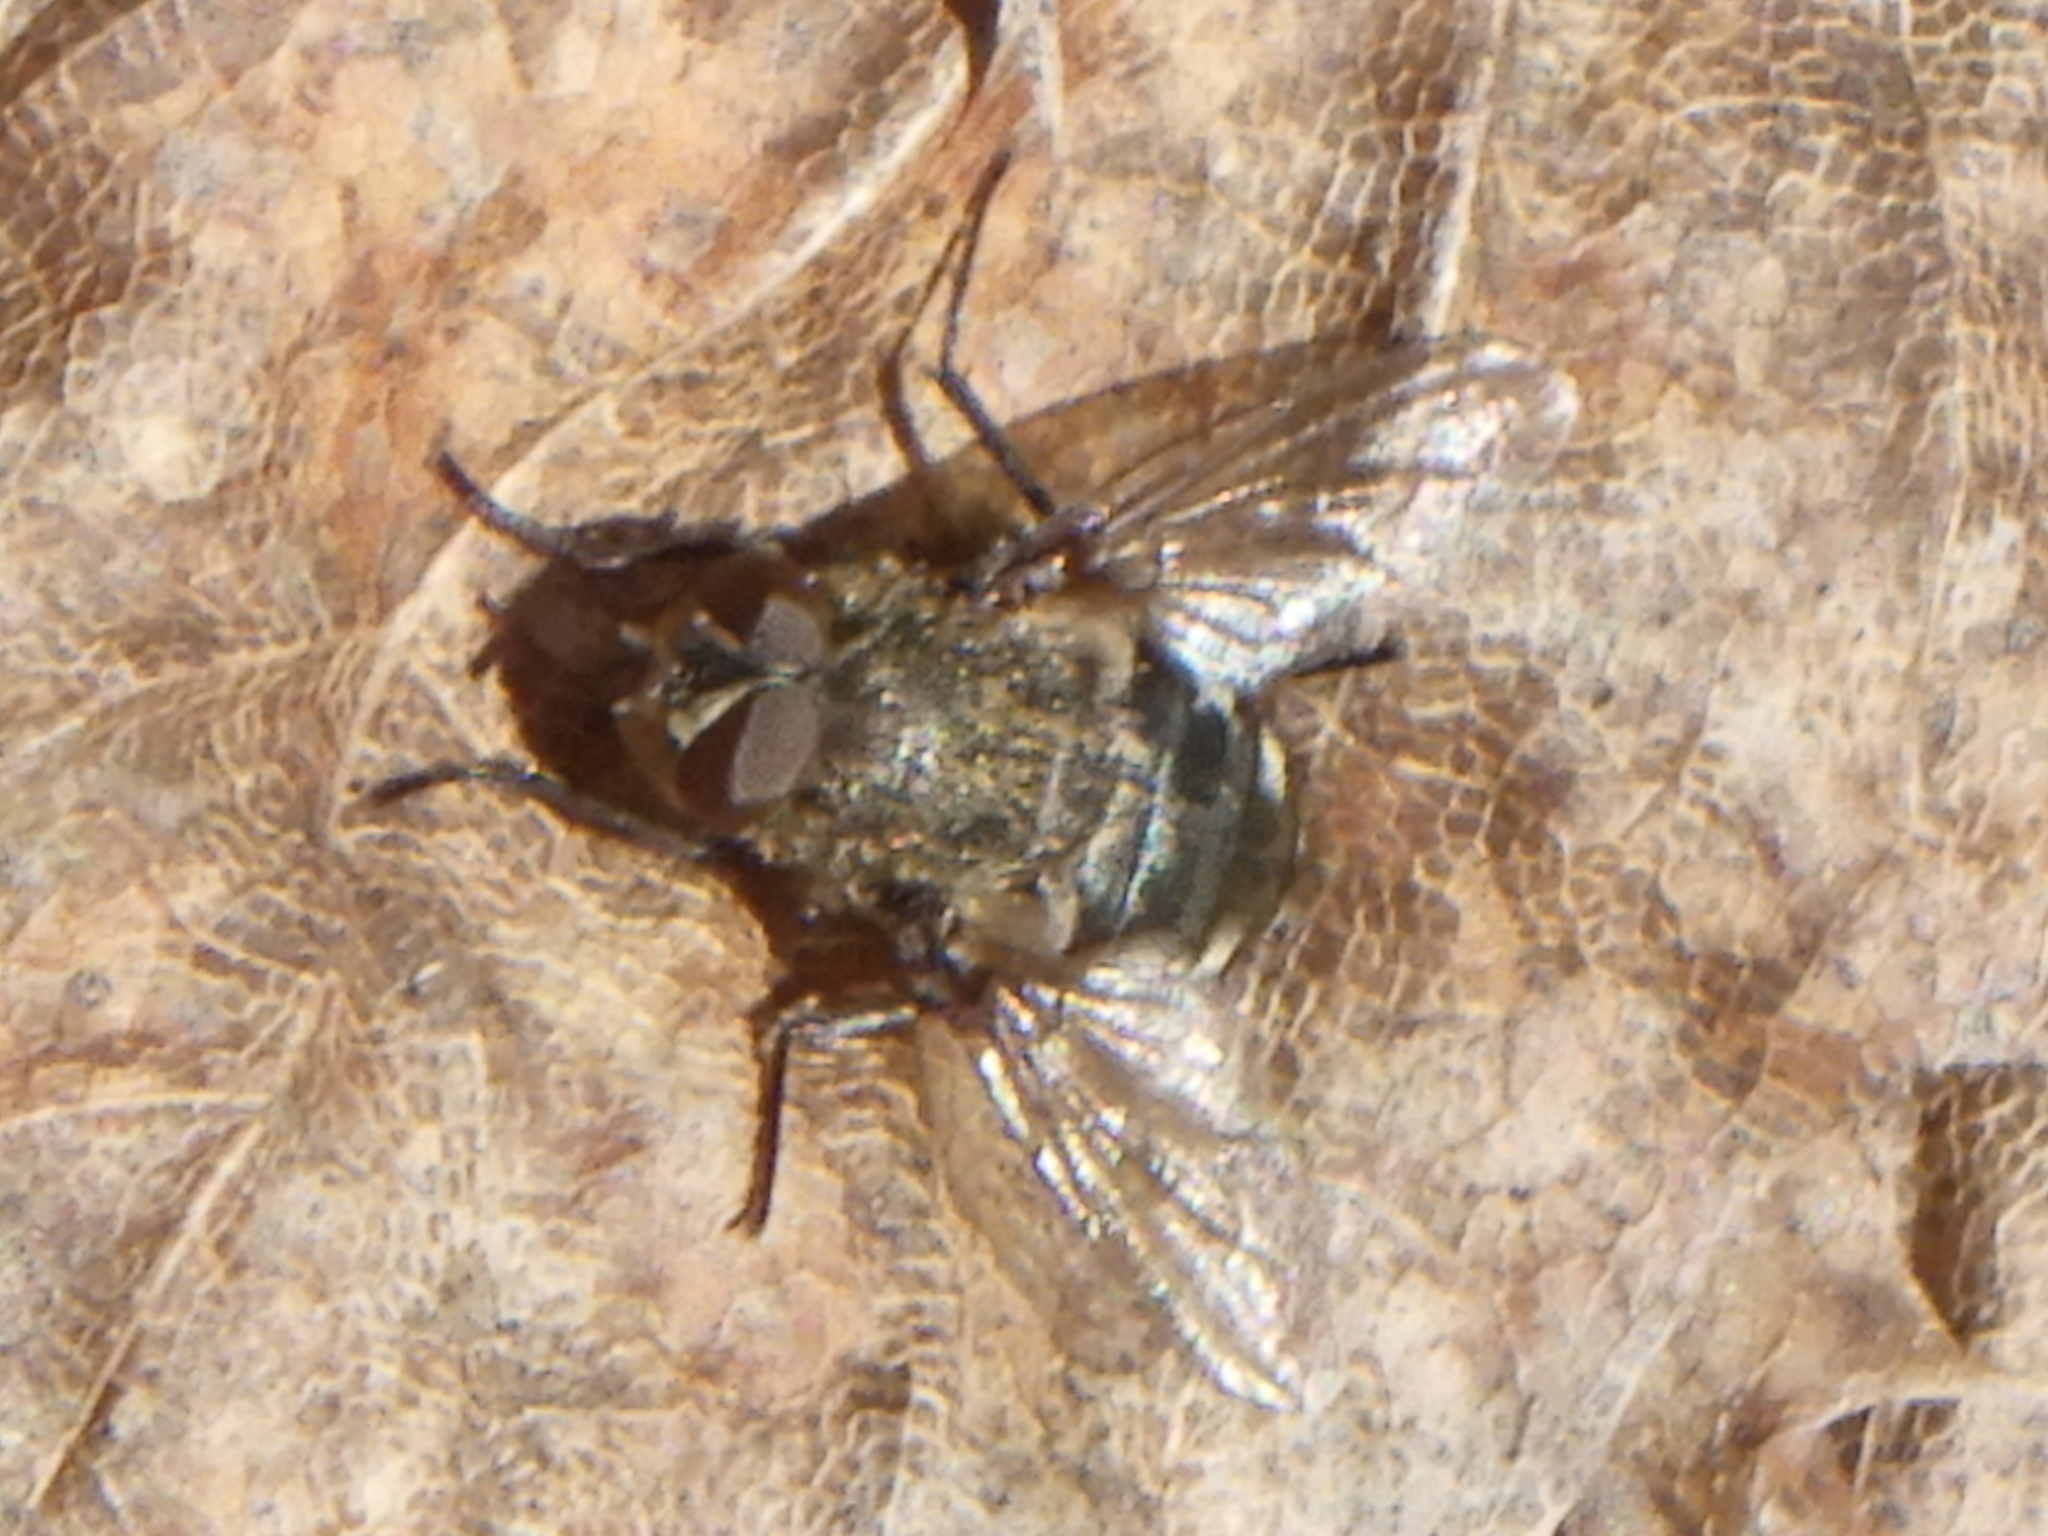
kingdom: Animalia
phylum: Arthropoda
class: Insecta
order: Diptera
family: Polleniidae
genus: Pollenia
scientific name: Pollenia
